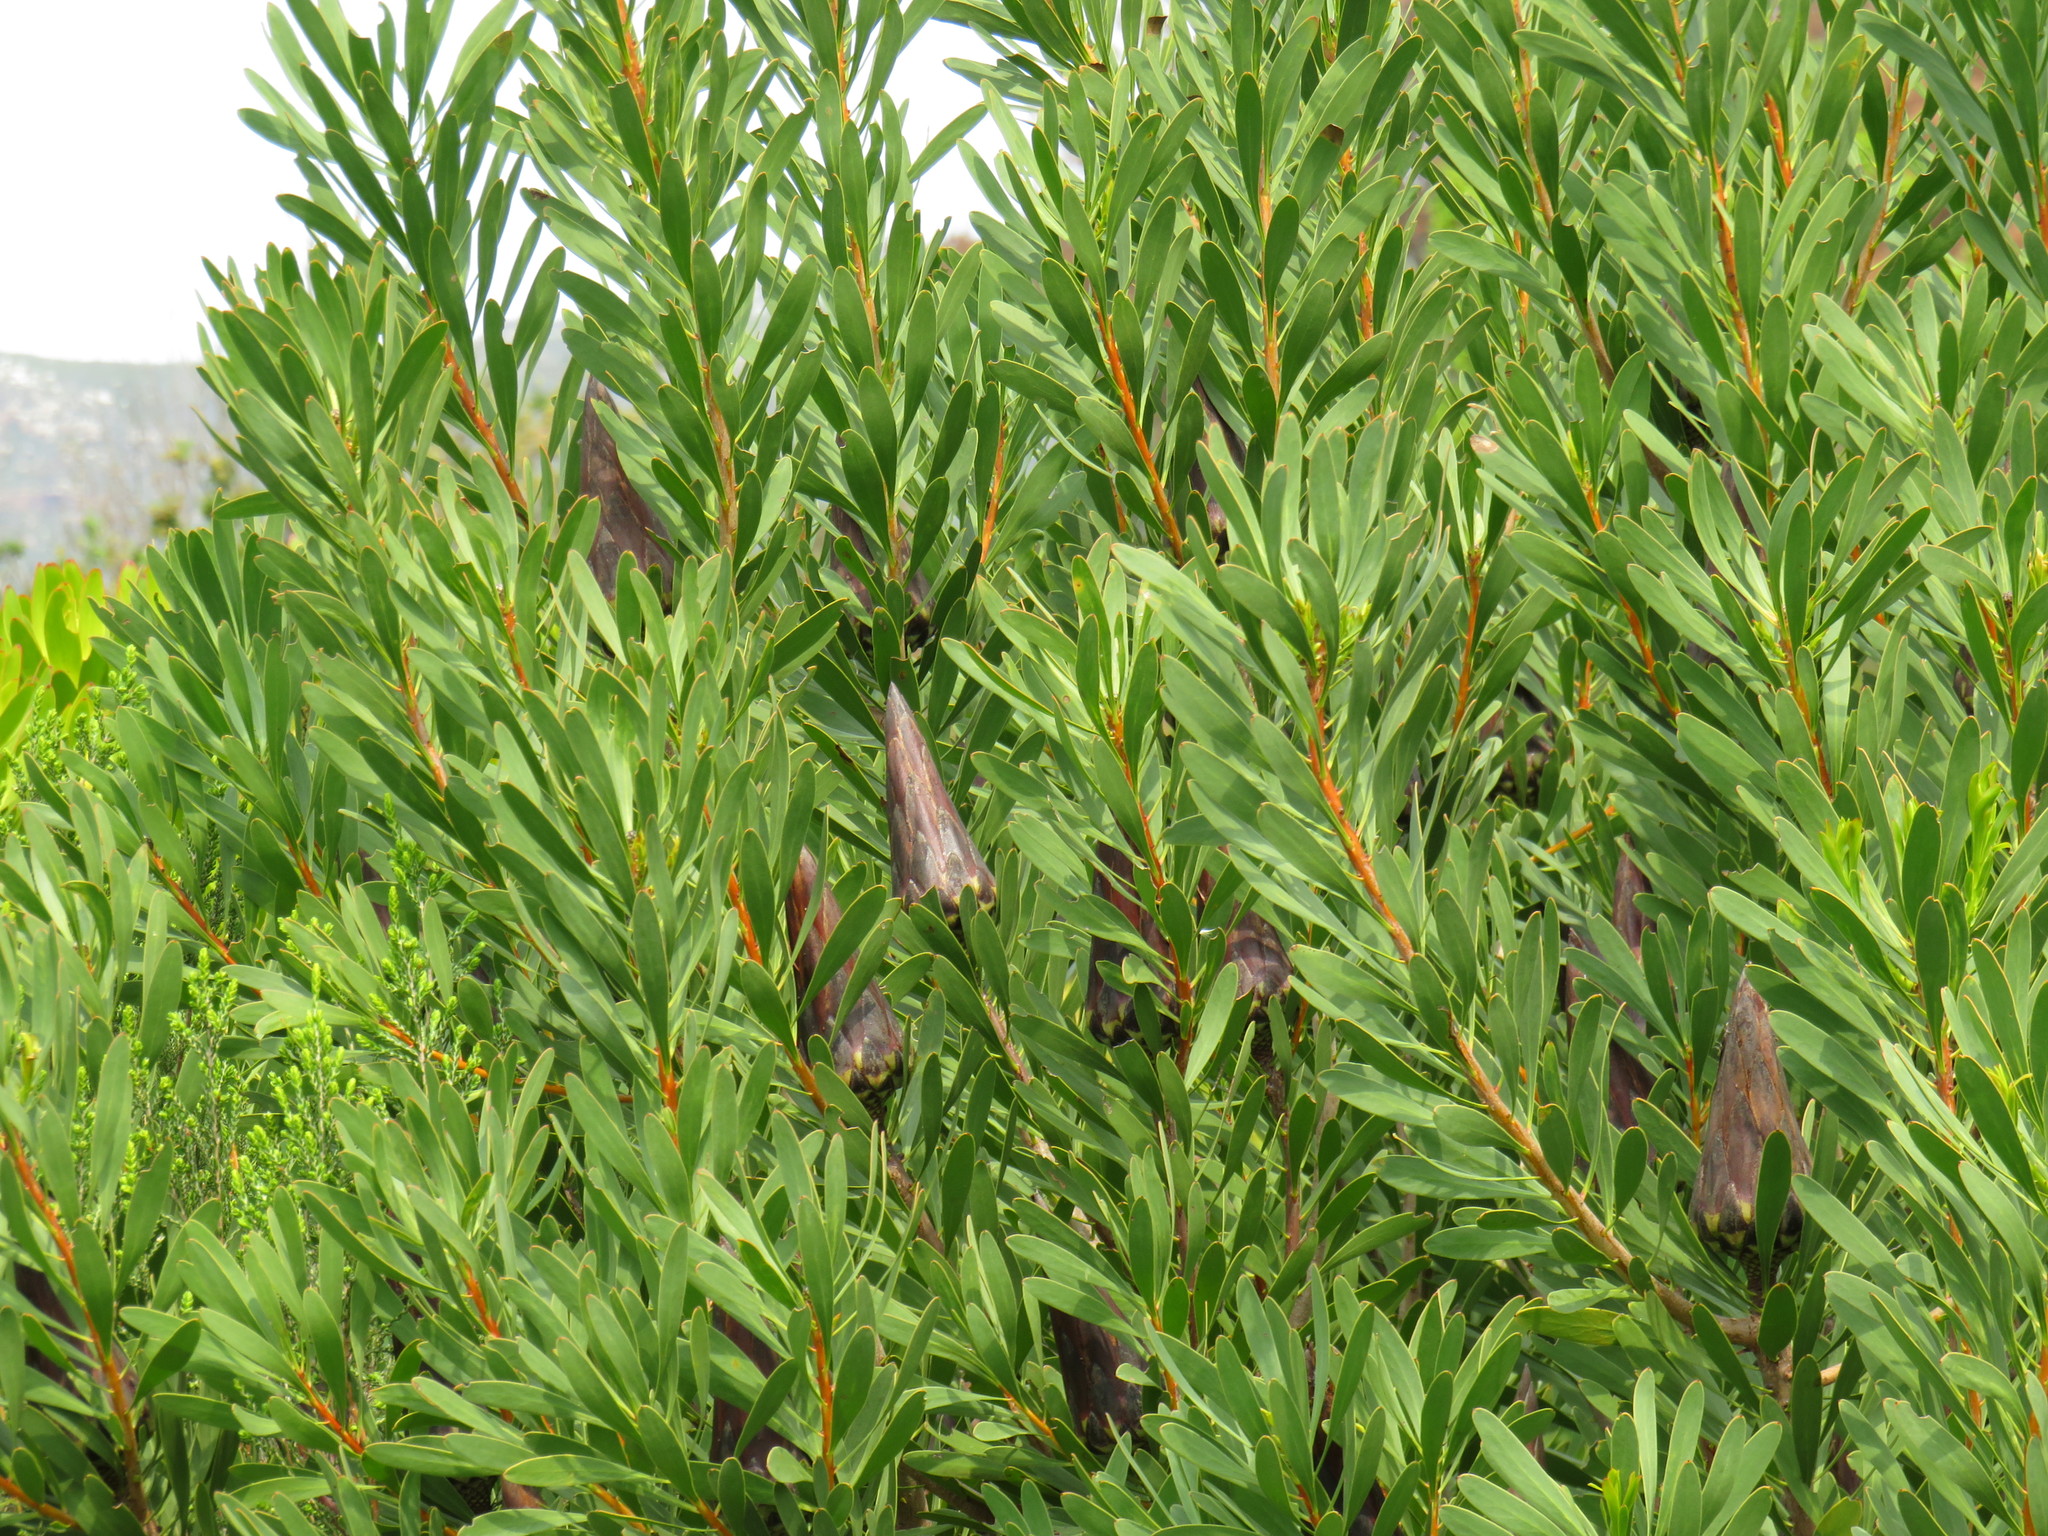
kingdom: Plantae
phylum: Tracheophyta
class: Magnoliopsida
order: Proteales
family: Proteaceae
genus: Protea
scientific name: Protea repens
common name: Sugarbush
